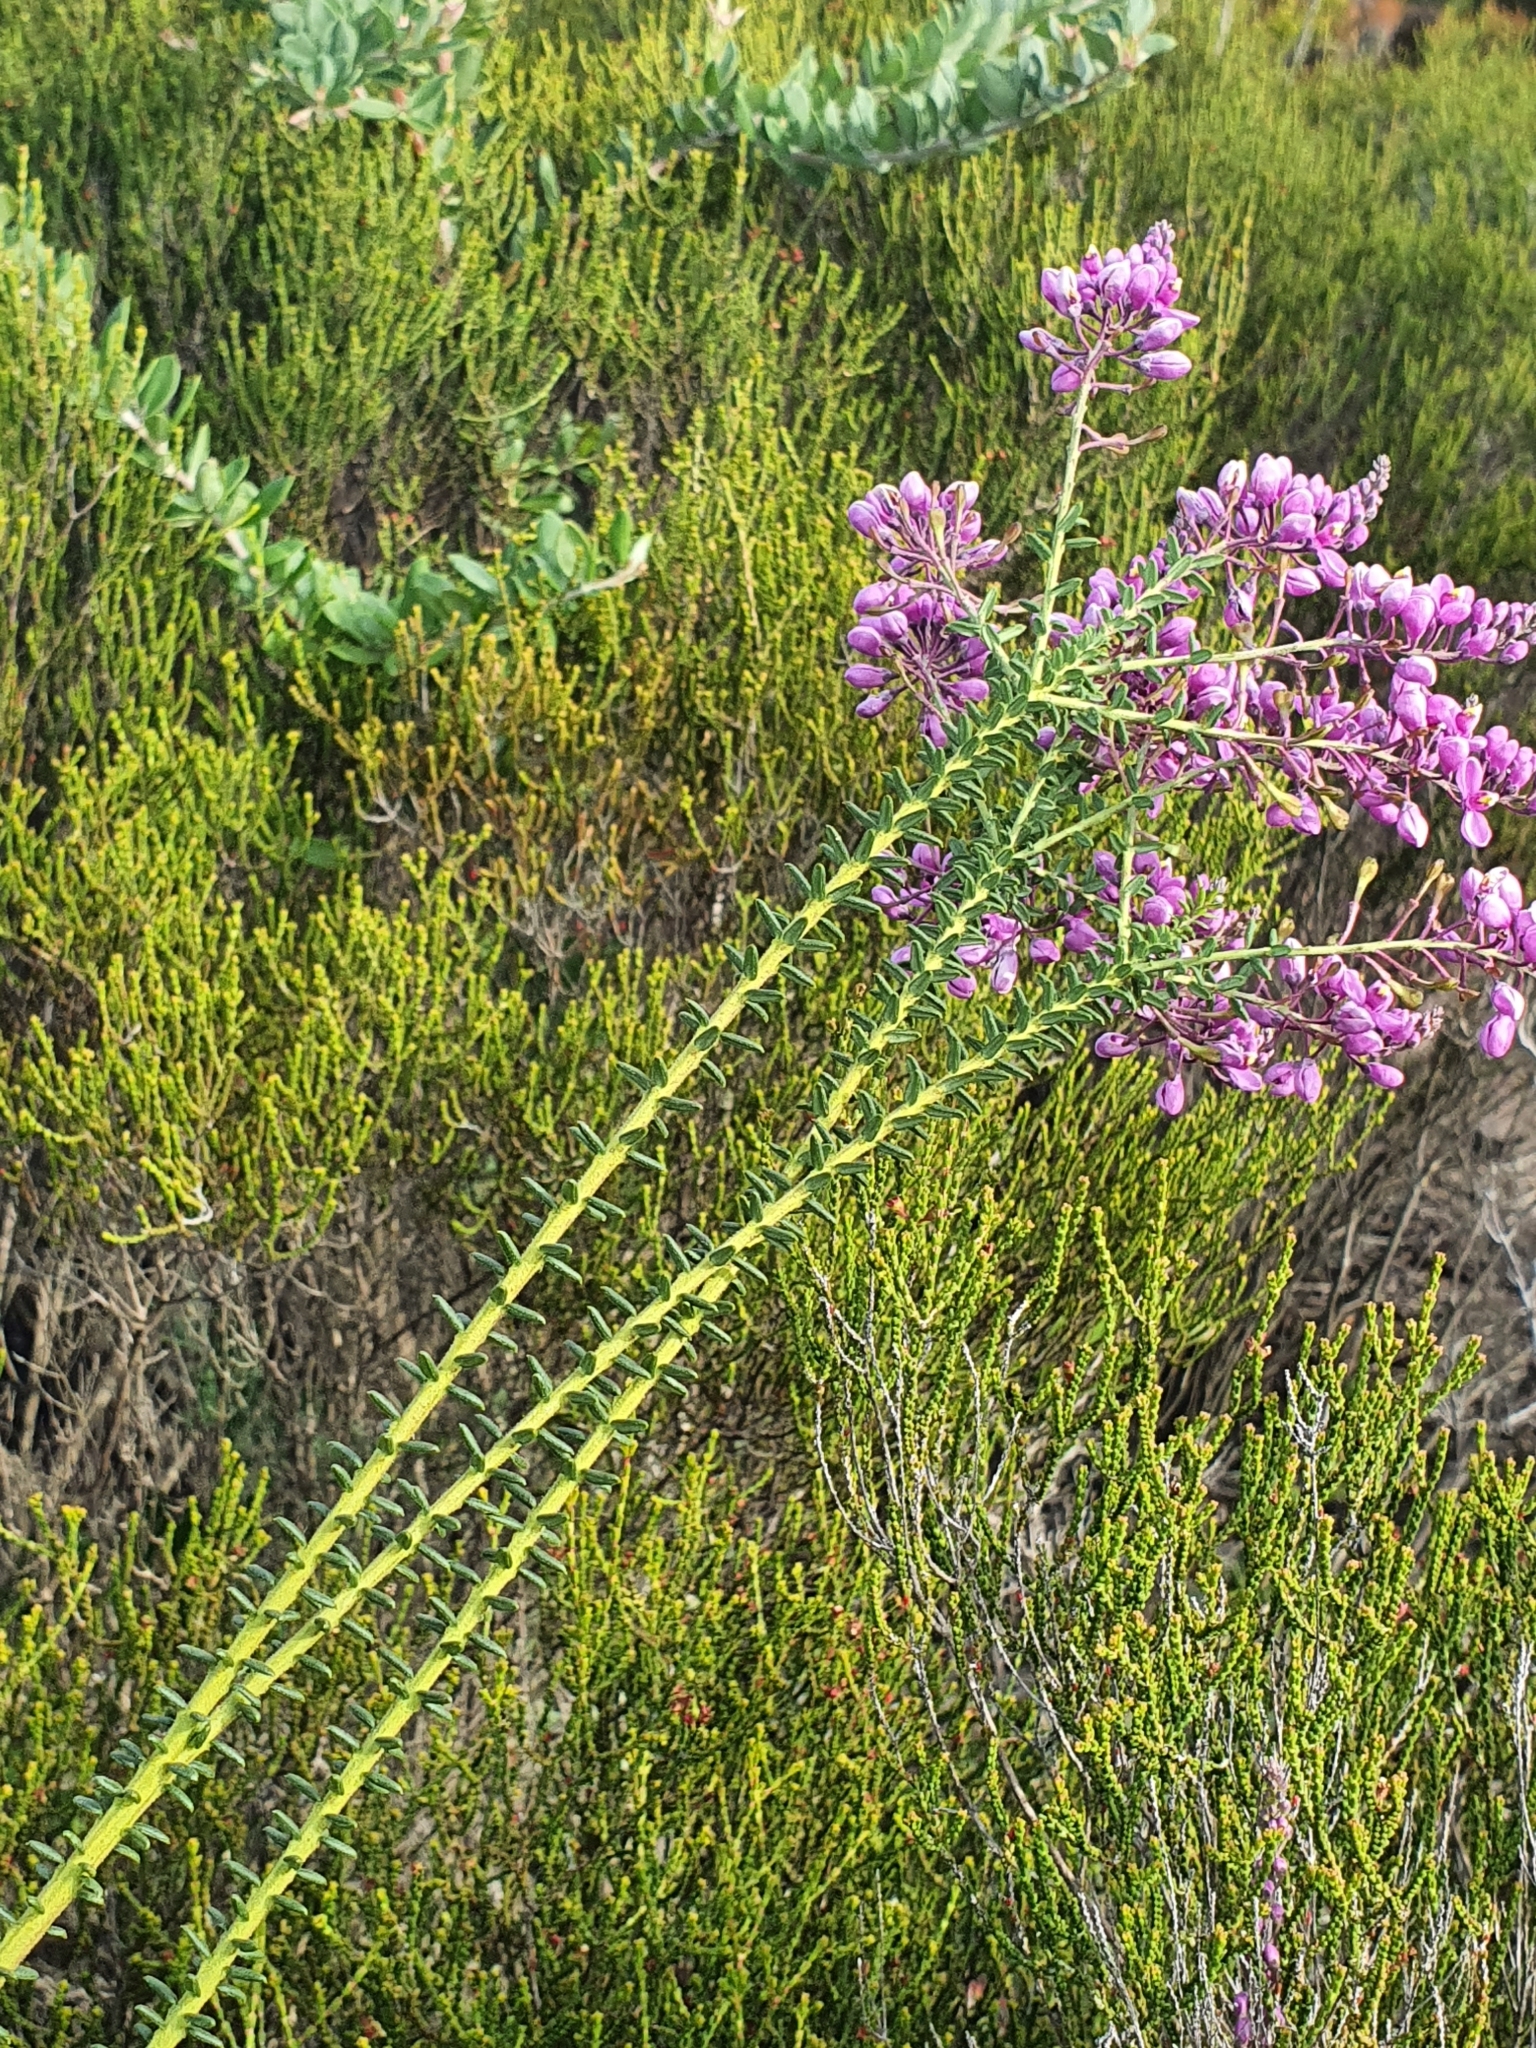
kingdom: Plantae
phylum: Tracheophyta
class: Magnoliopsida
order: Fabales
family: Polygalaceae
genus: Comesperma
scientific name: Comesperma ericinum
